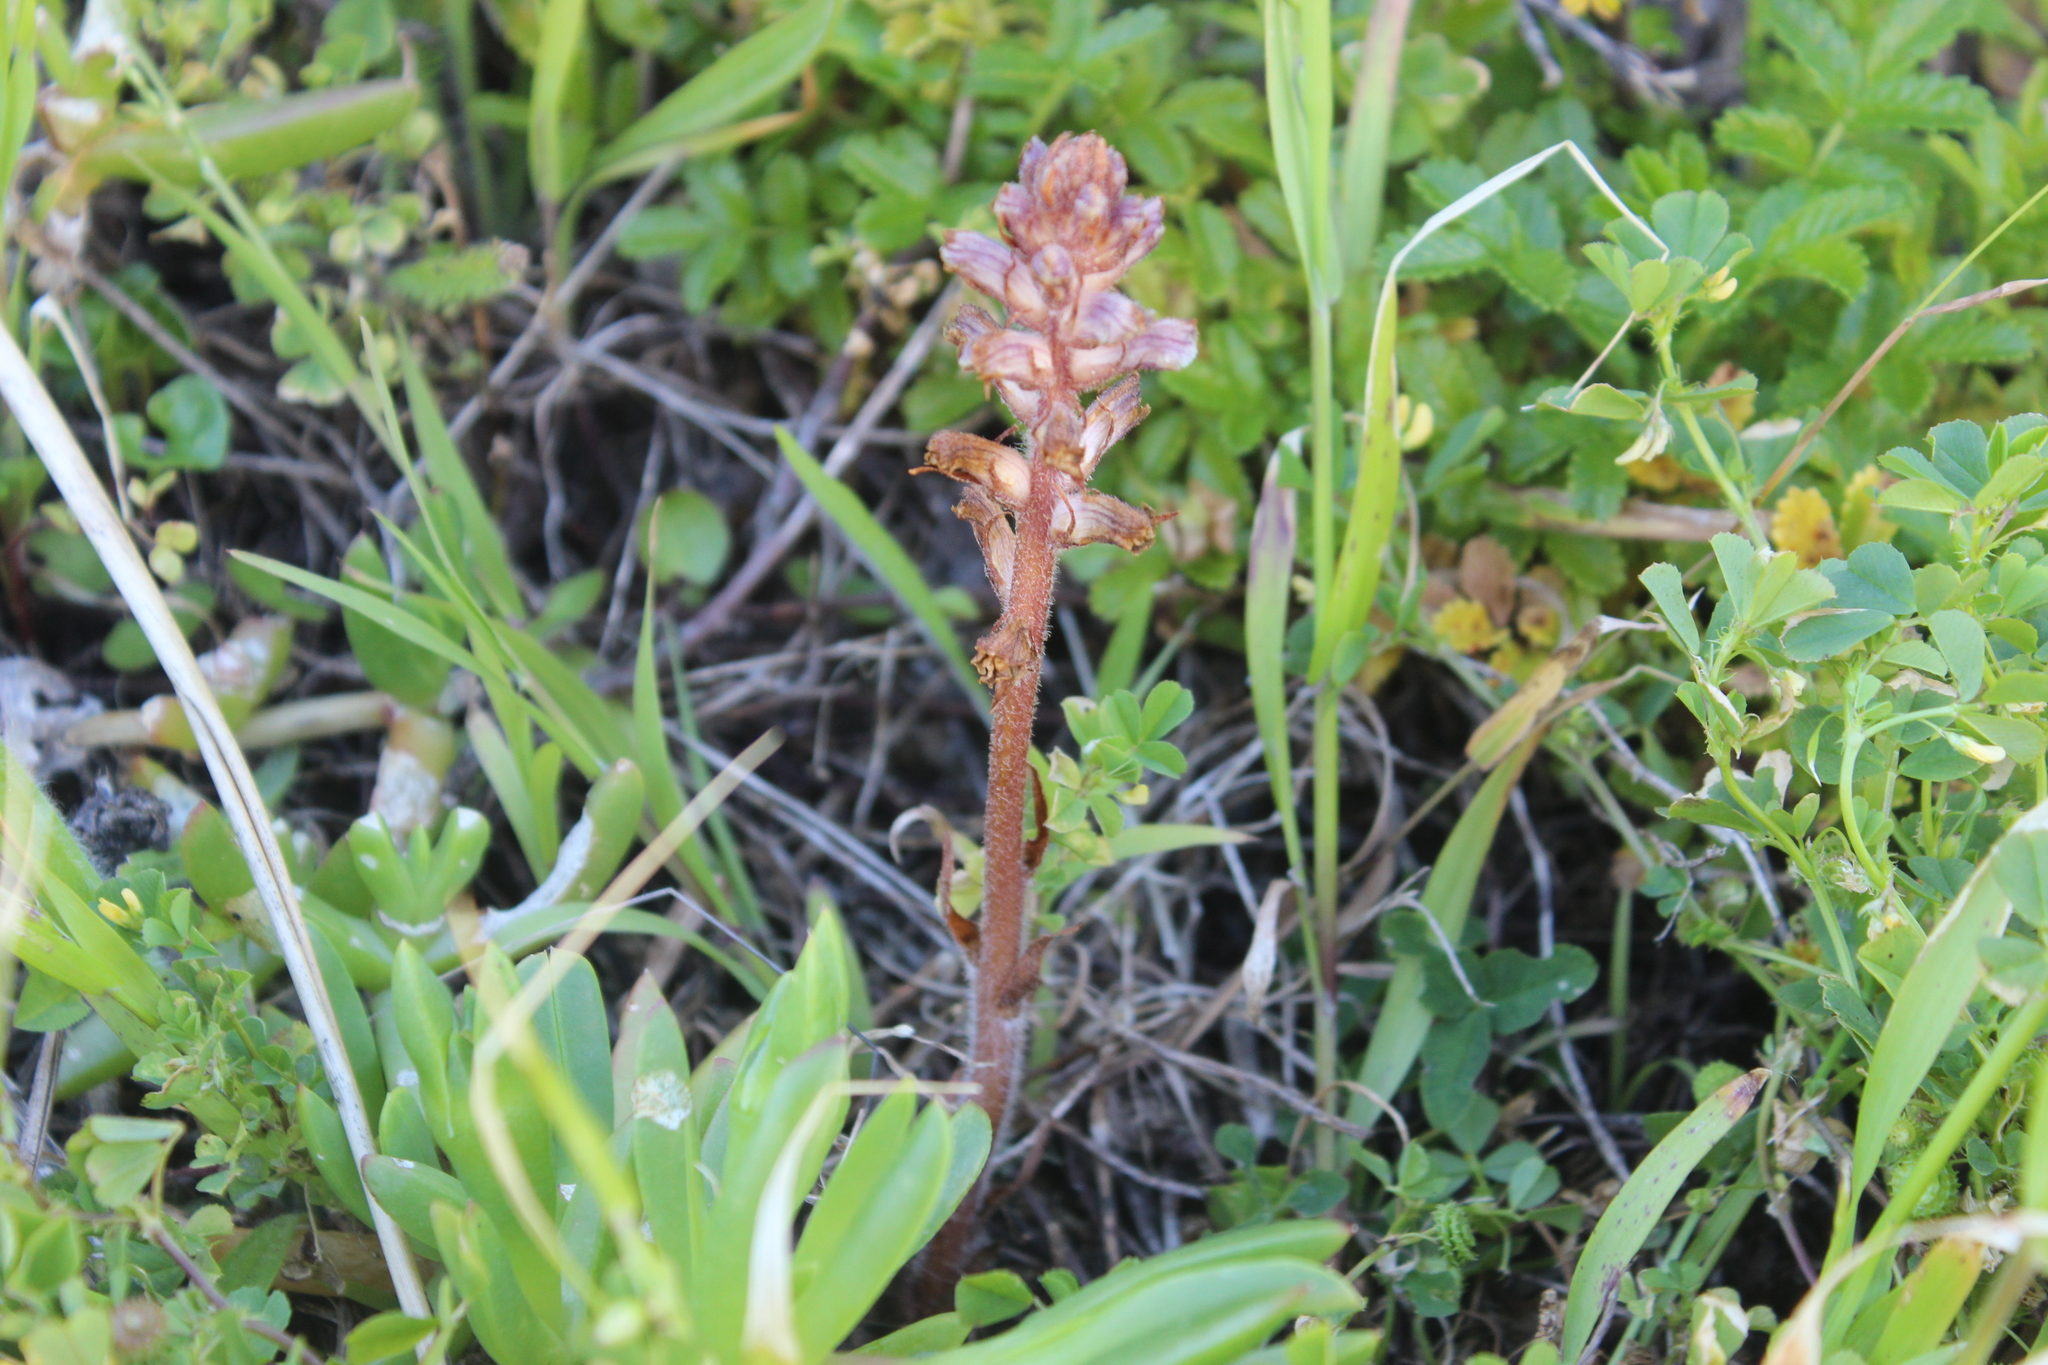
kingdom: Plantae
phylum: Tracheophyta
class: Magnoliopsida
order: Lamiales
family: Orobanchaceae
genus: Orobanche
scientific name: Orobanche minor
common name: Common broomrape
